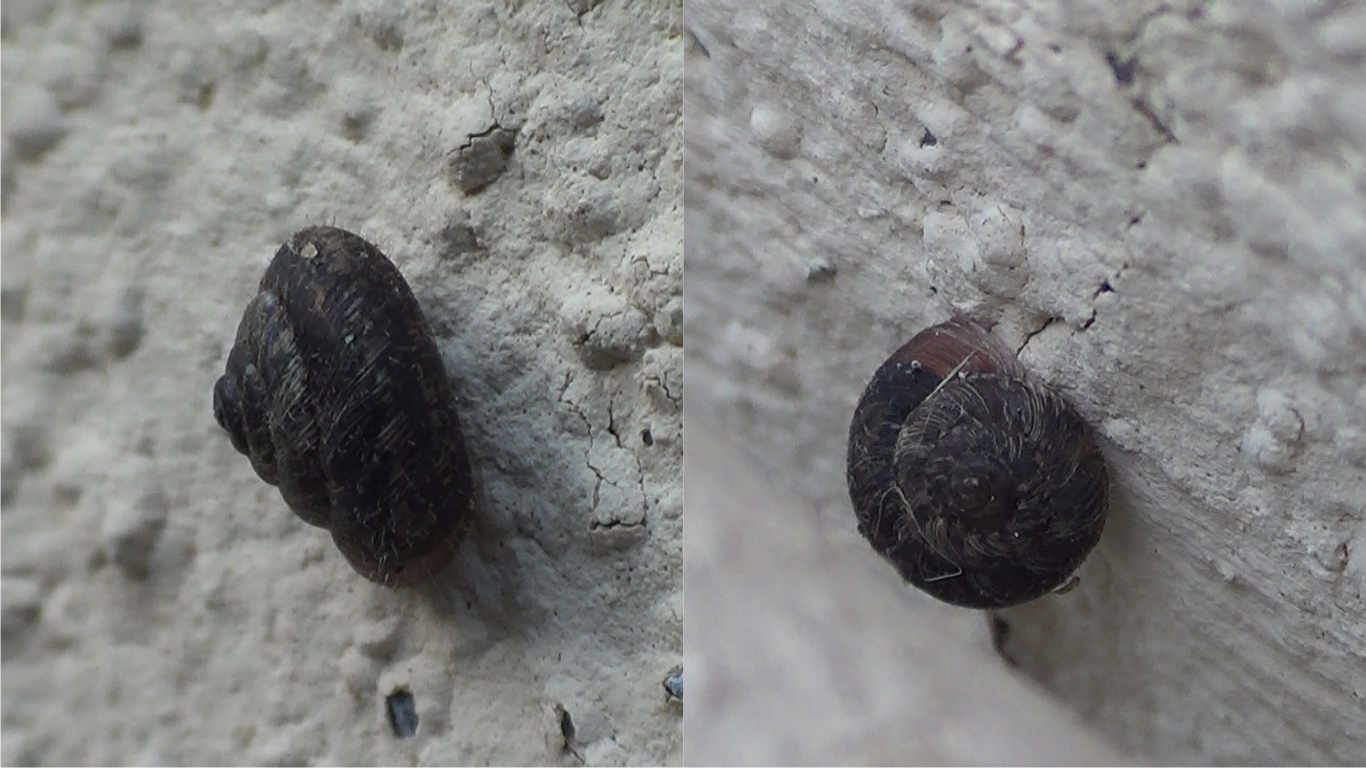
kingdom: Animalia
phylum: Mollusca
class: Gastropoda
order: Stylommatophora
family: Geomitridae
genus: Xerotricha
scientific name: Xerotricha conspurcata
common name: Snail
